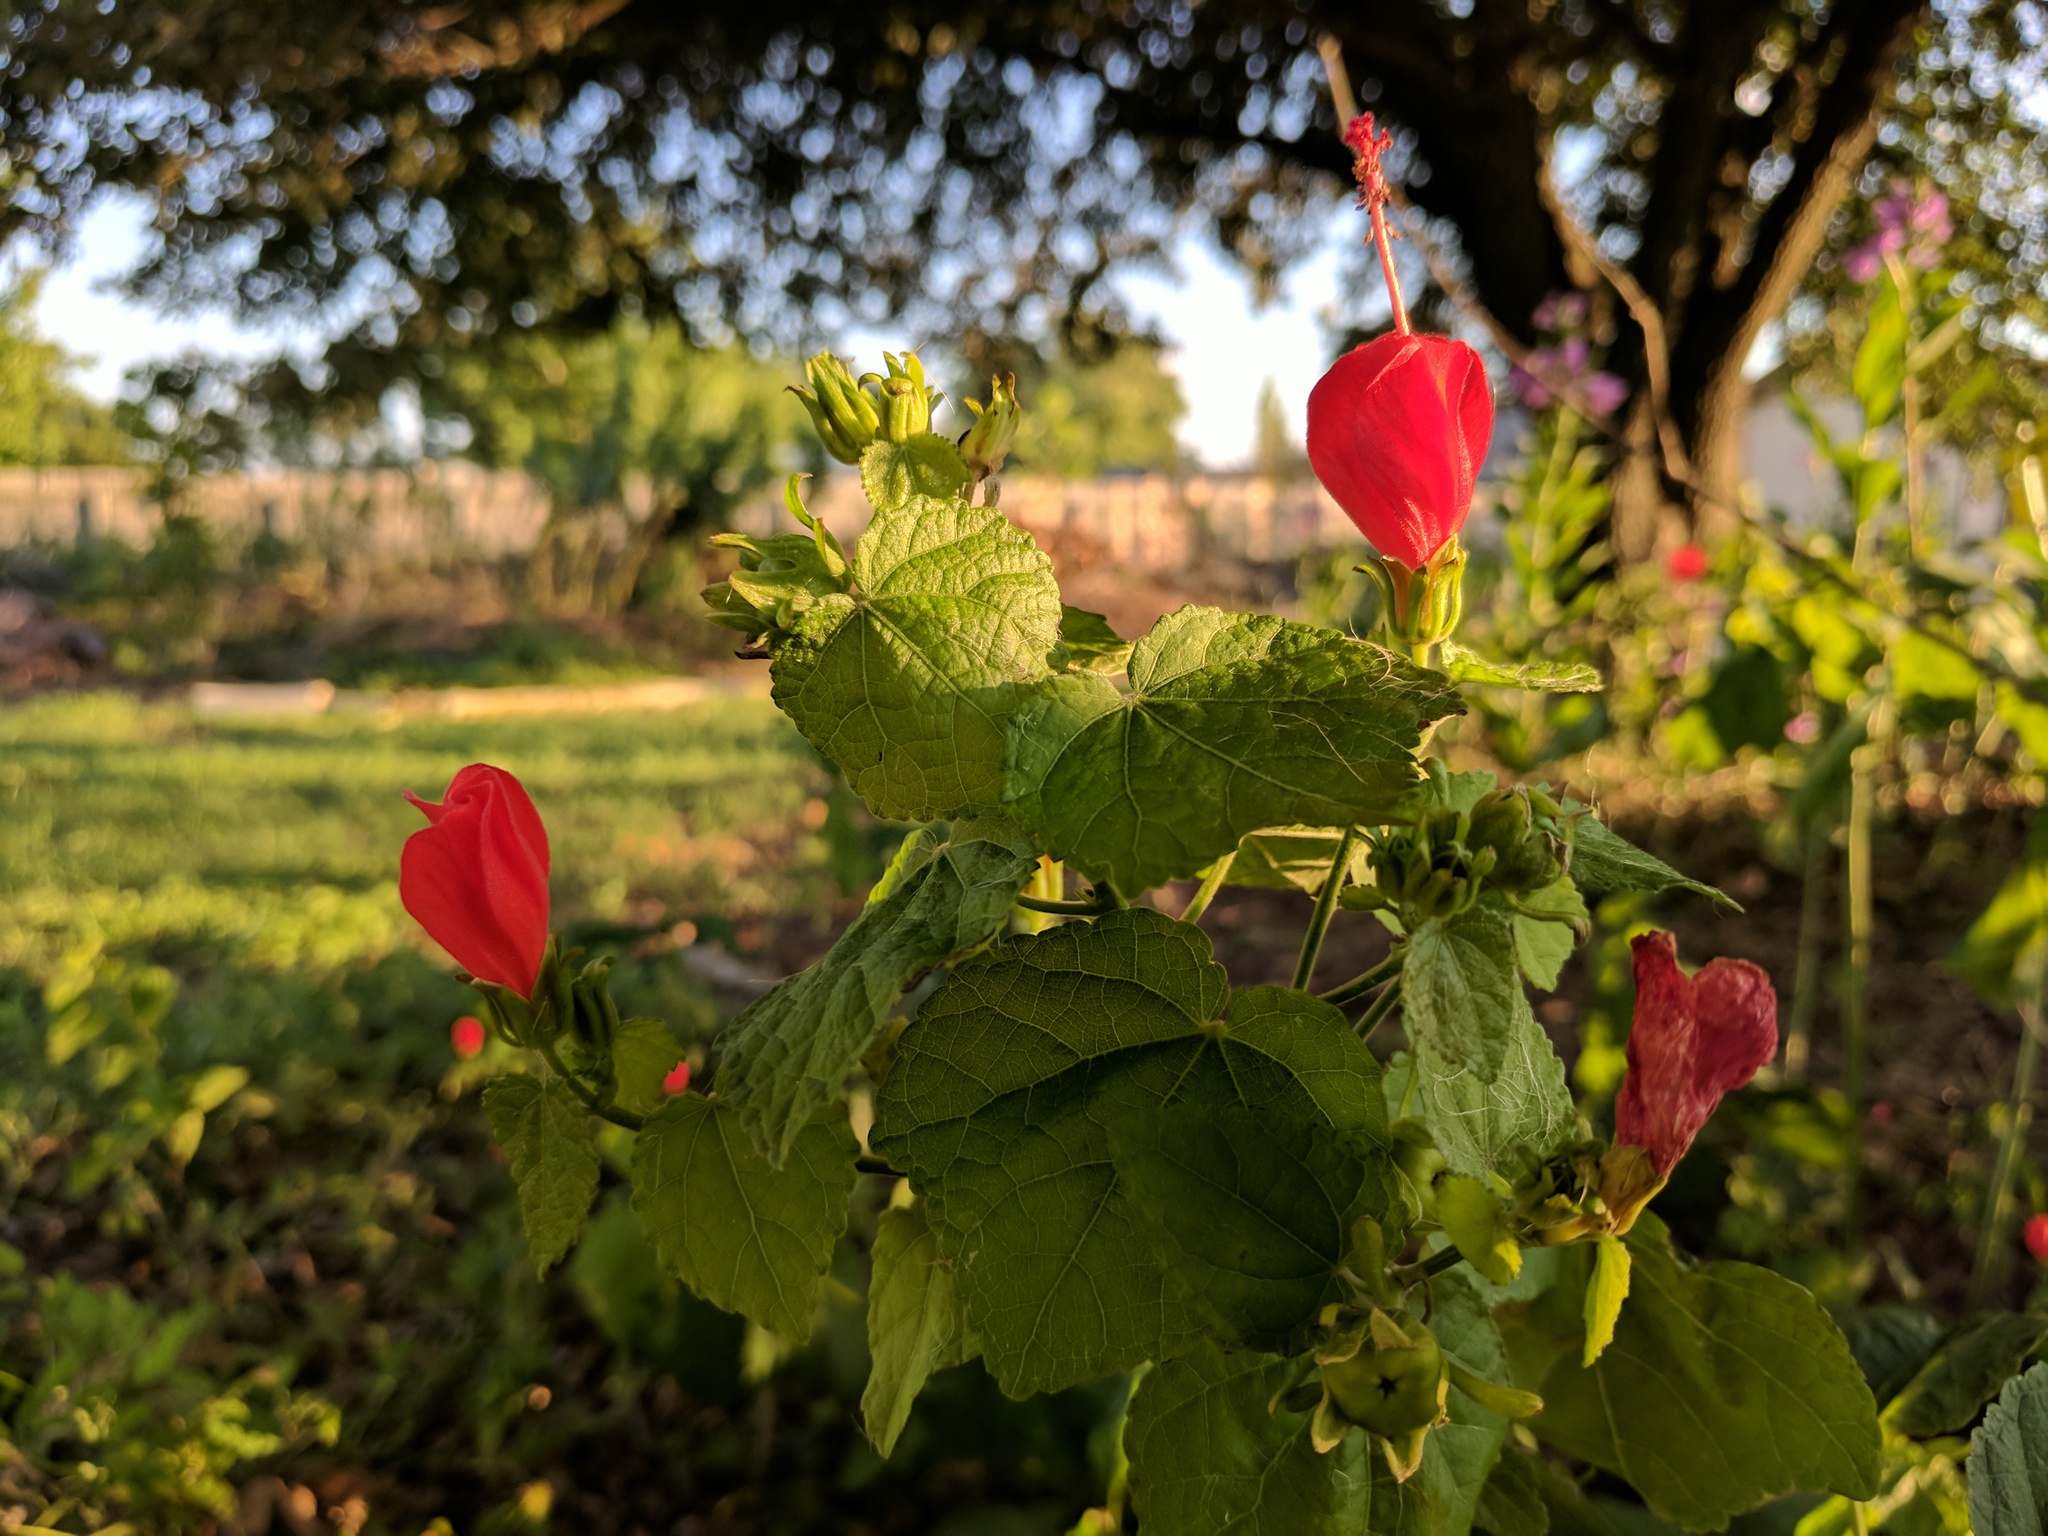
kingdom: Plantae
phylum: Tracheophyta
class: Magnoliopsida
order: Malvales
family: Malvaceae
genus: Malvaviscus
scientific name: Malvaviscus arboreus
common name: Wax mallow
